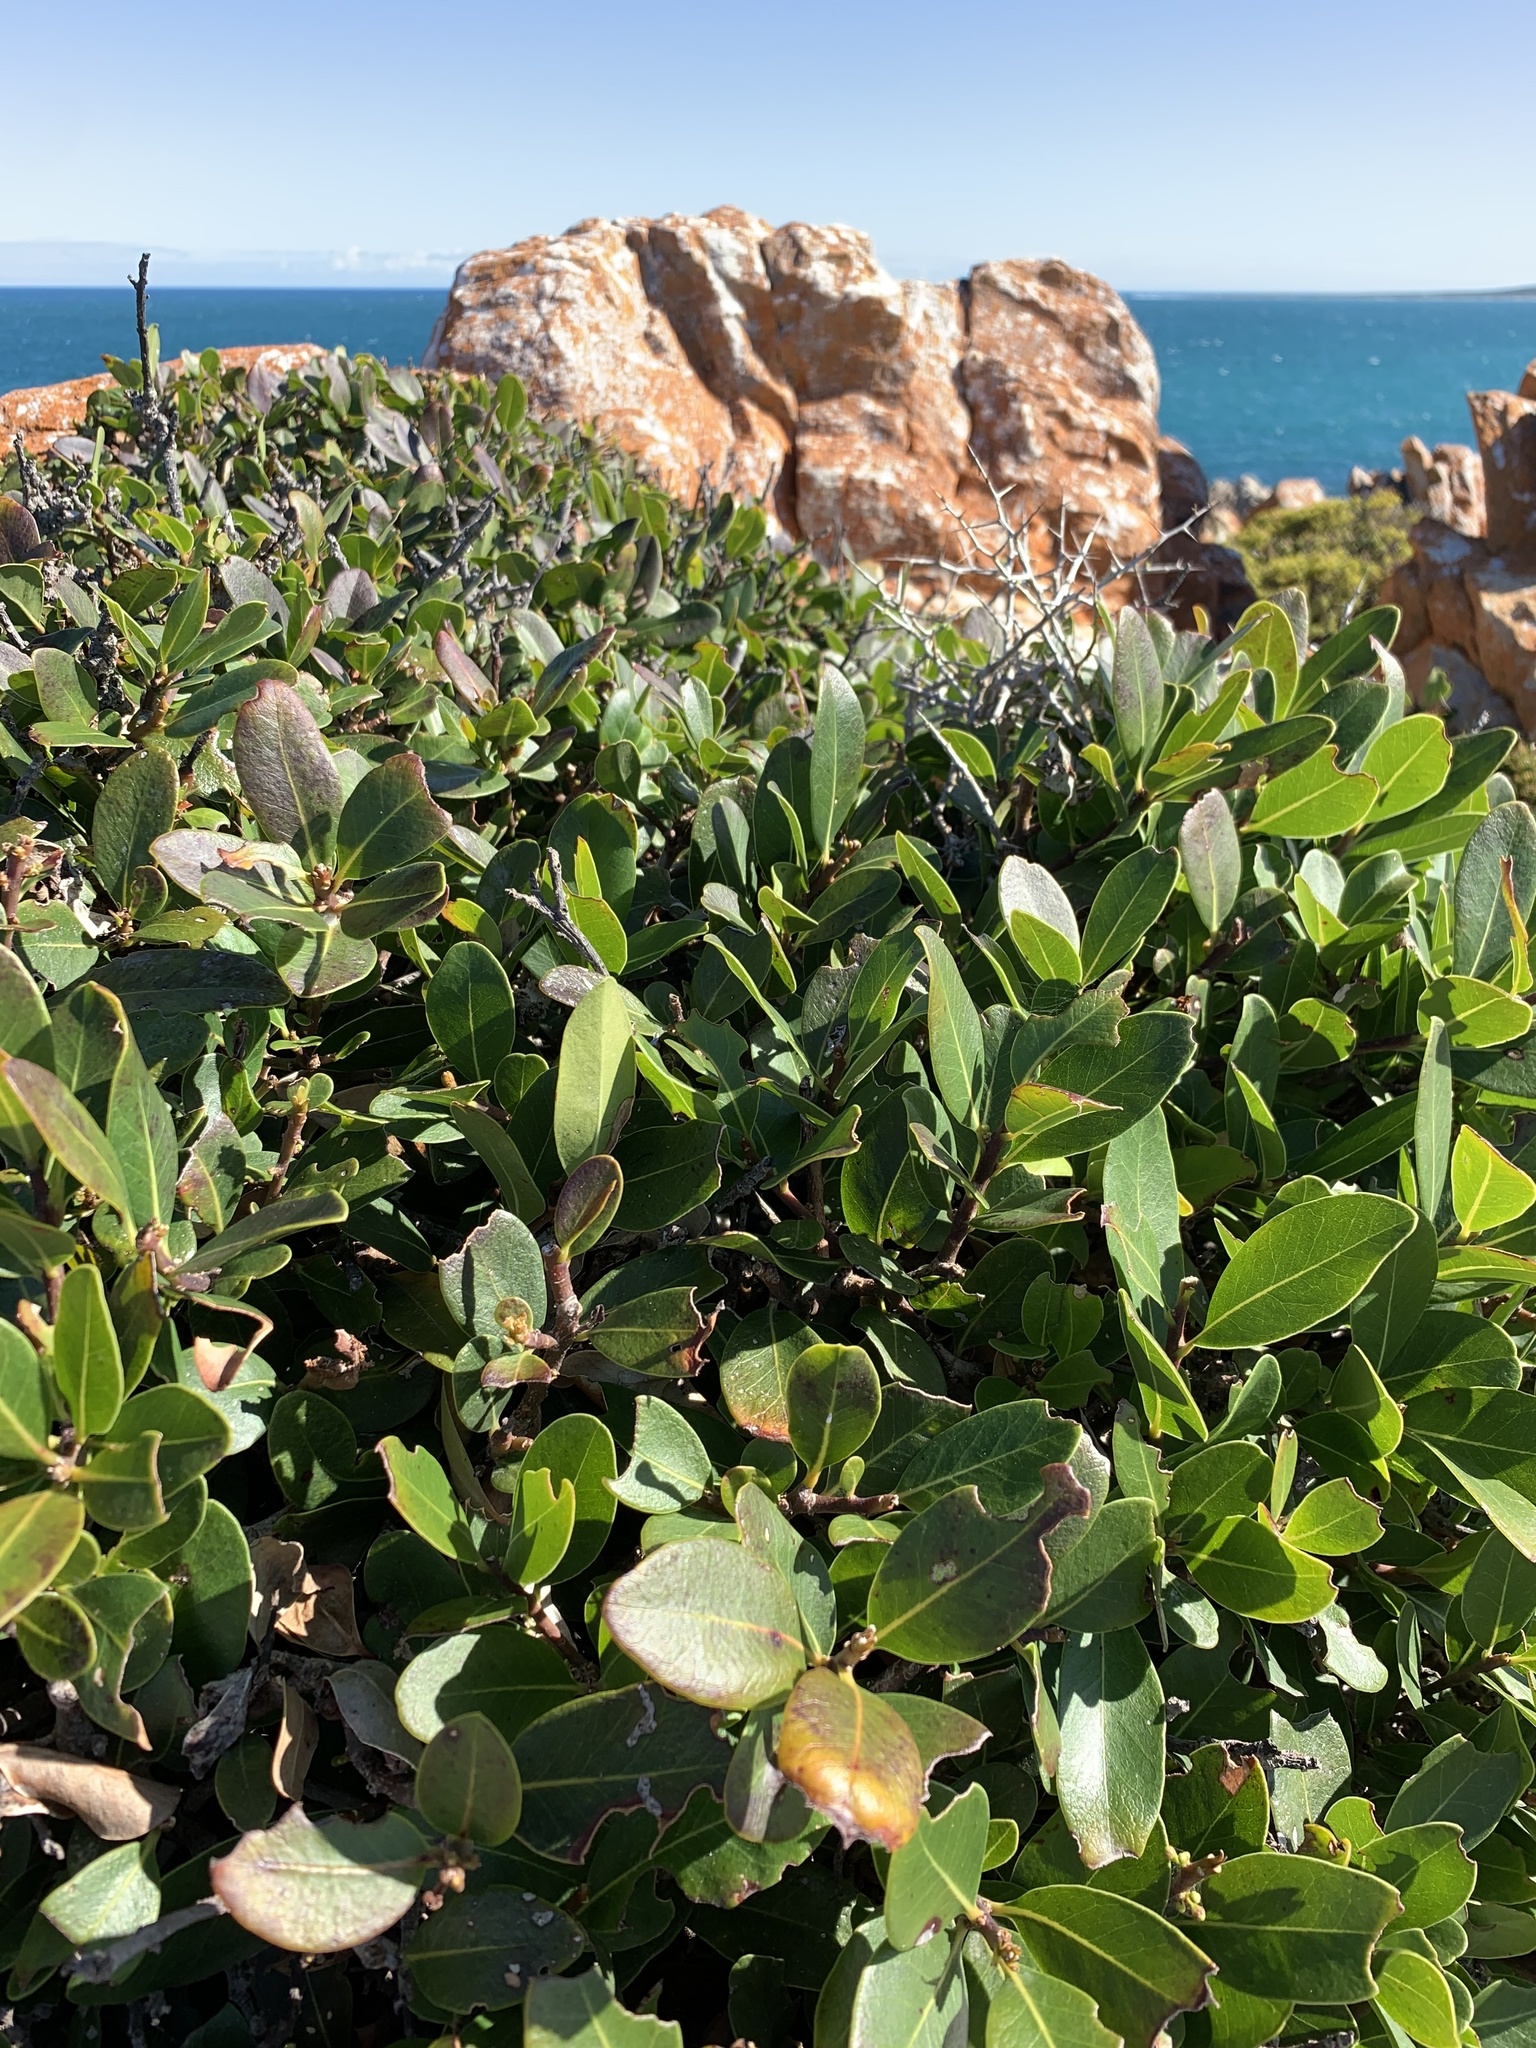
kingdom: Plantae
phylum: Tracheophyta
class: Magnoliopsida
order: Ericales
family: Sapotaceae
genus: Sideroxylon
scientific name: Sideroxylon inerme
